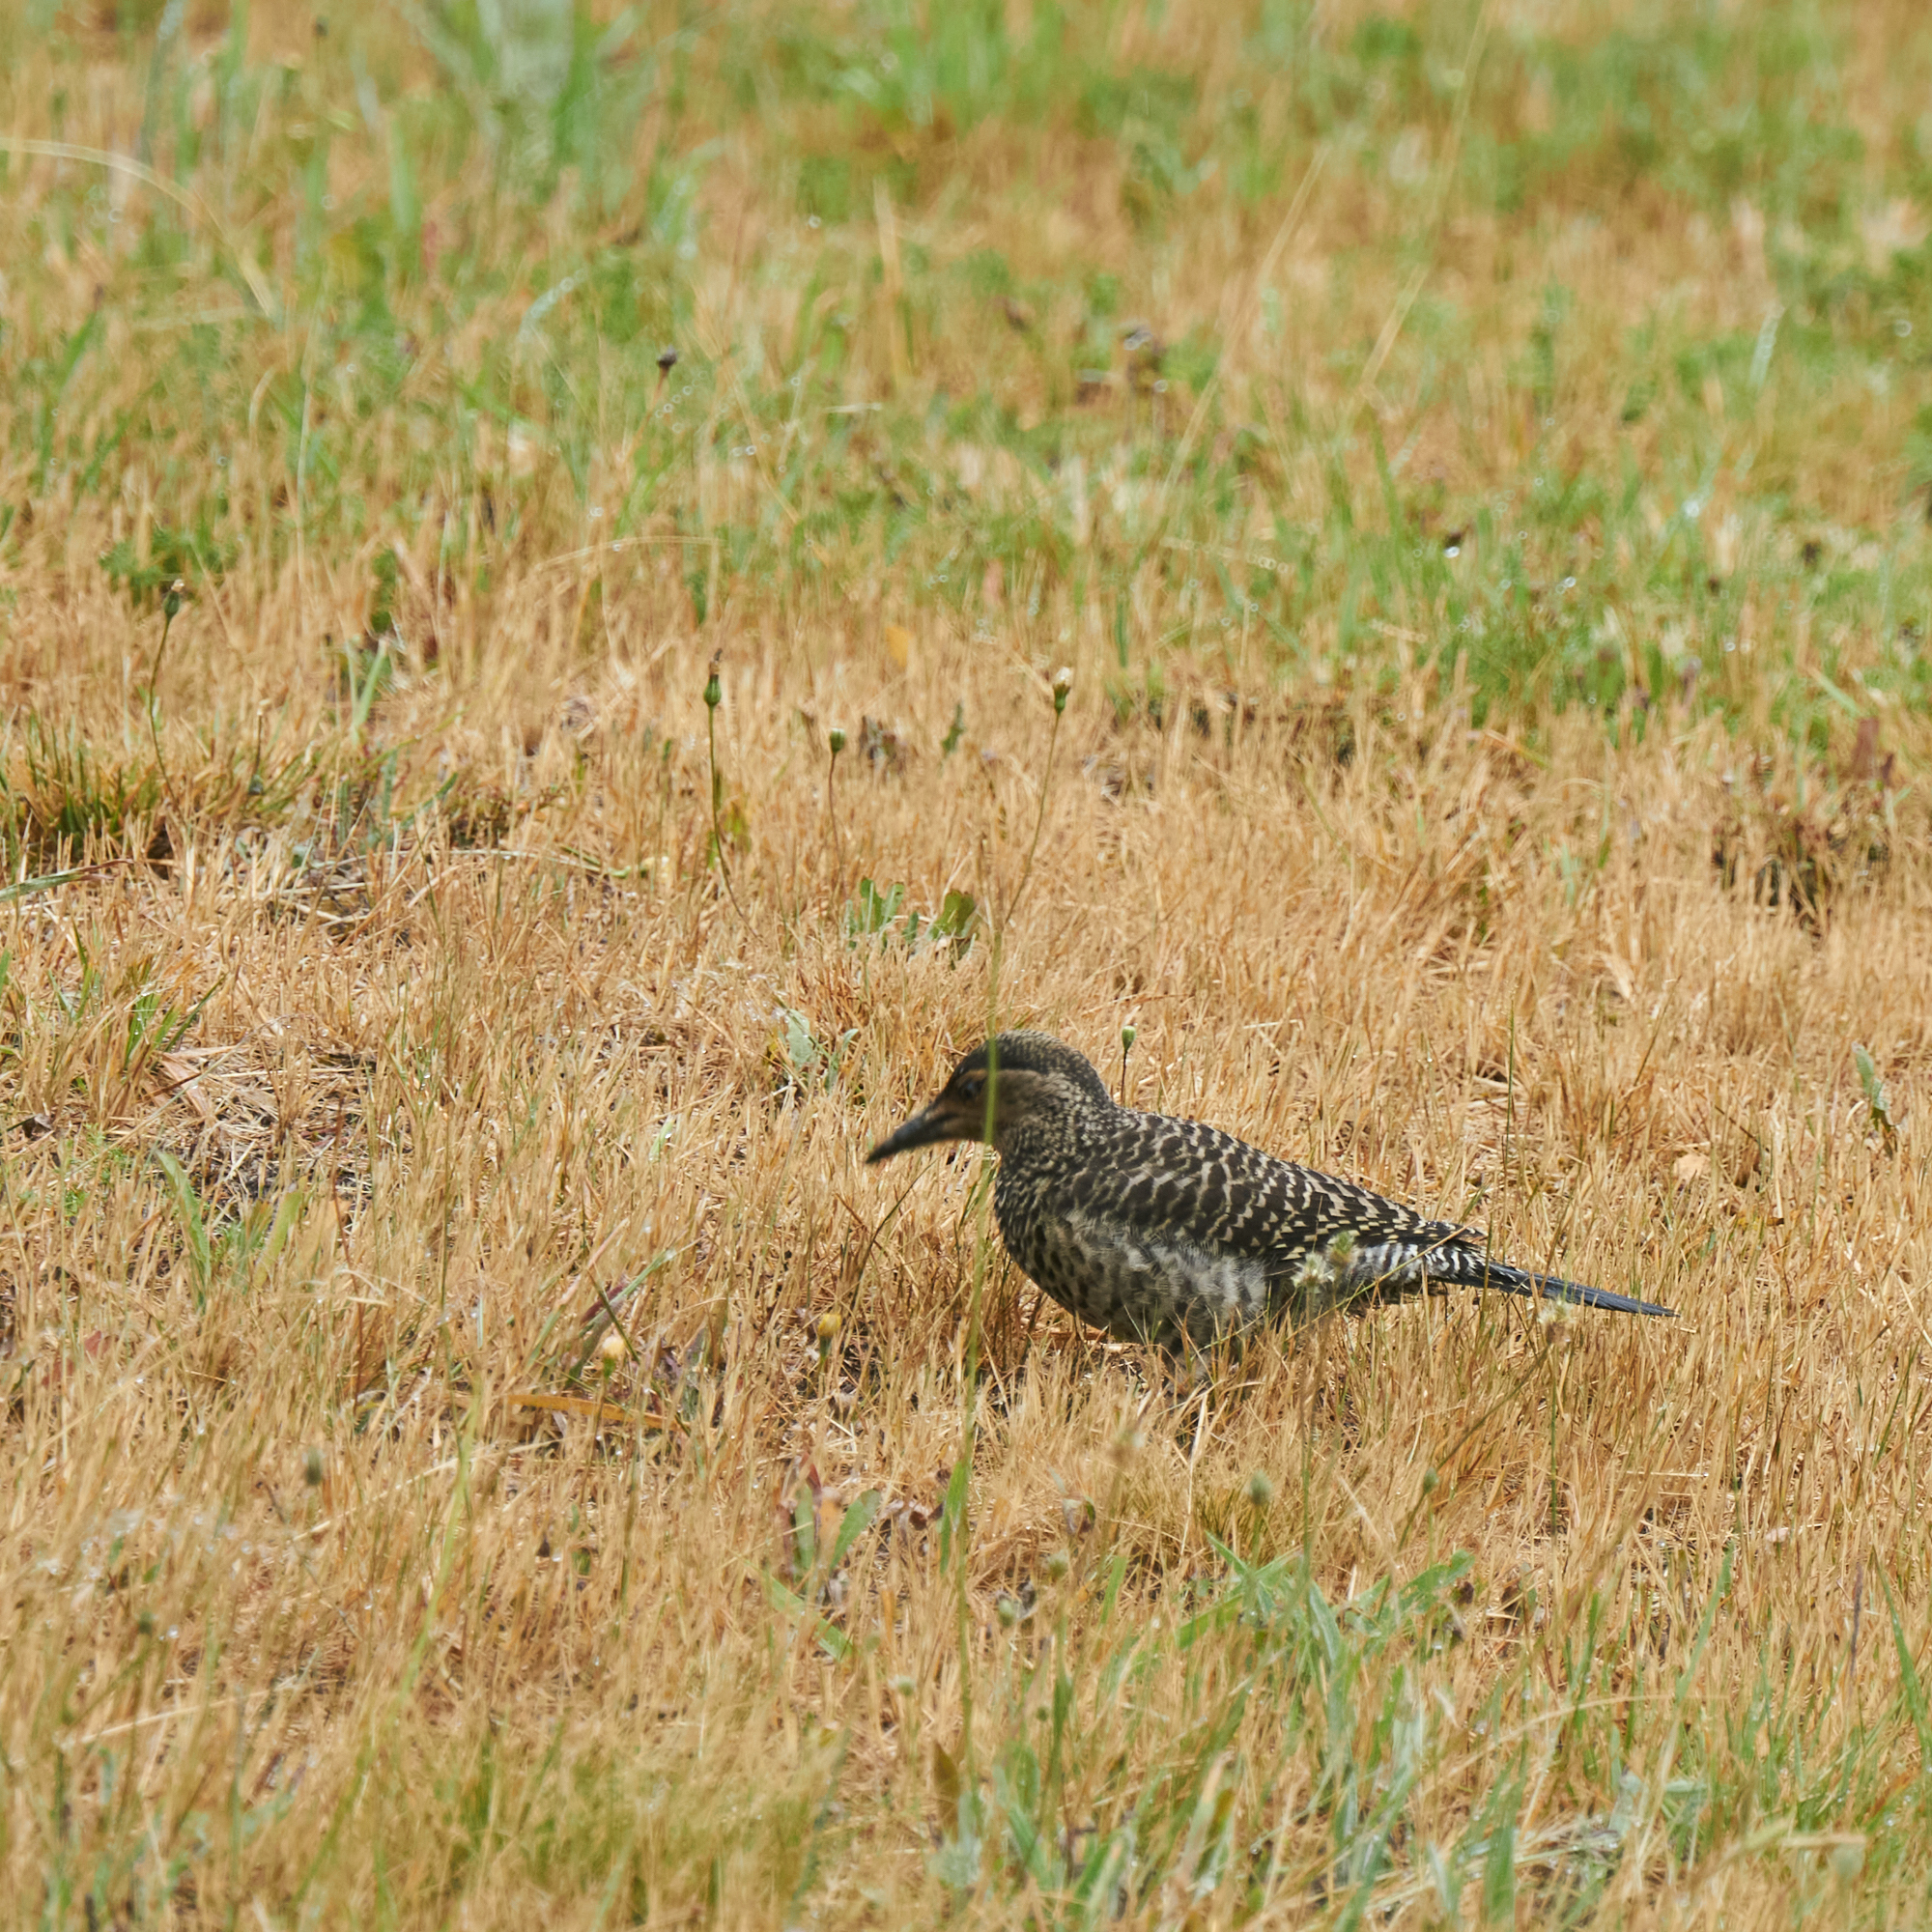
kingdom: Animalia
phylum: Chordata
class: Aves
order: Piciformes
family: Picidae
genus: Colaptes
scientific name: Colaptes pitius
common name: Chilean flicker
